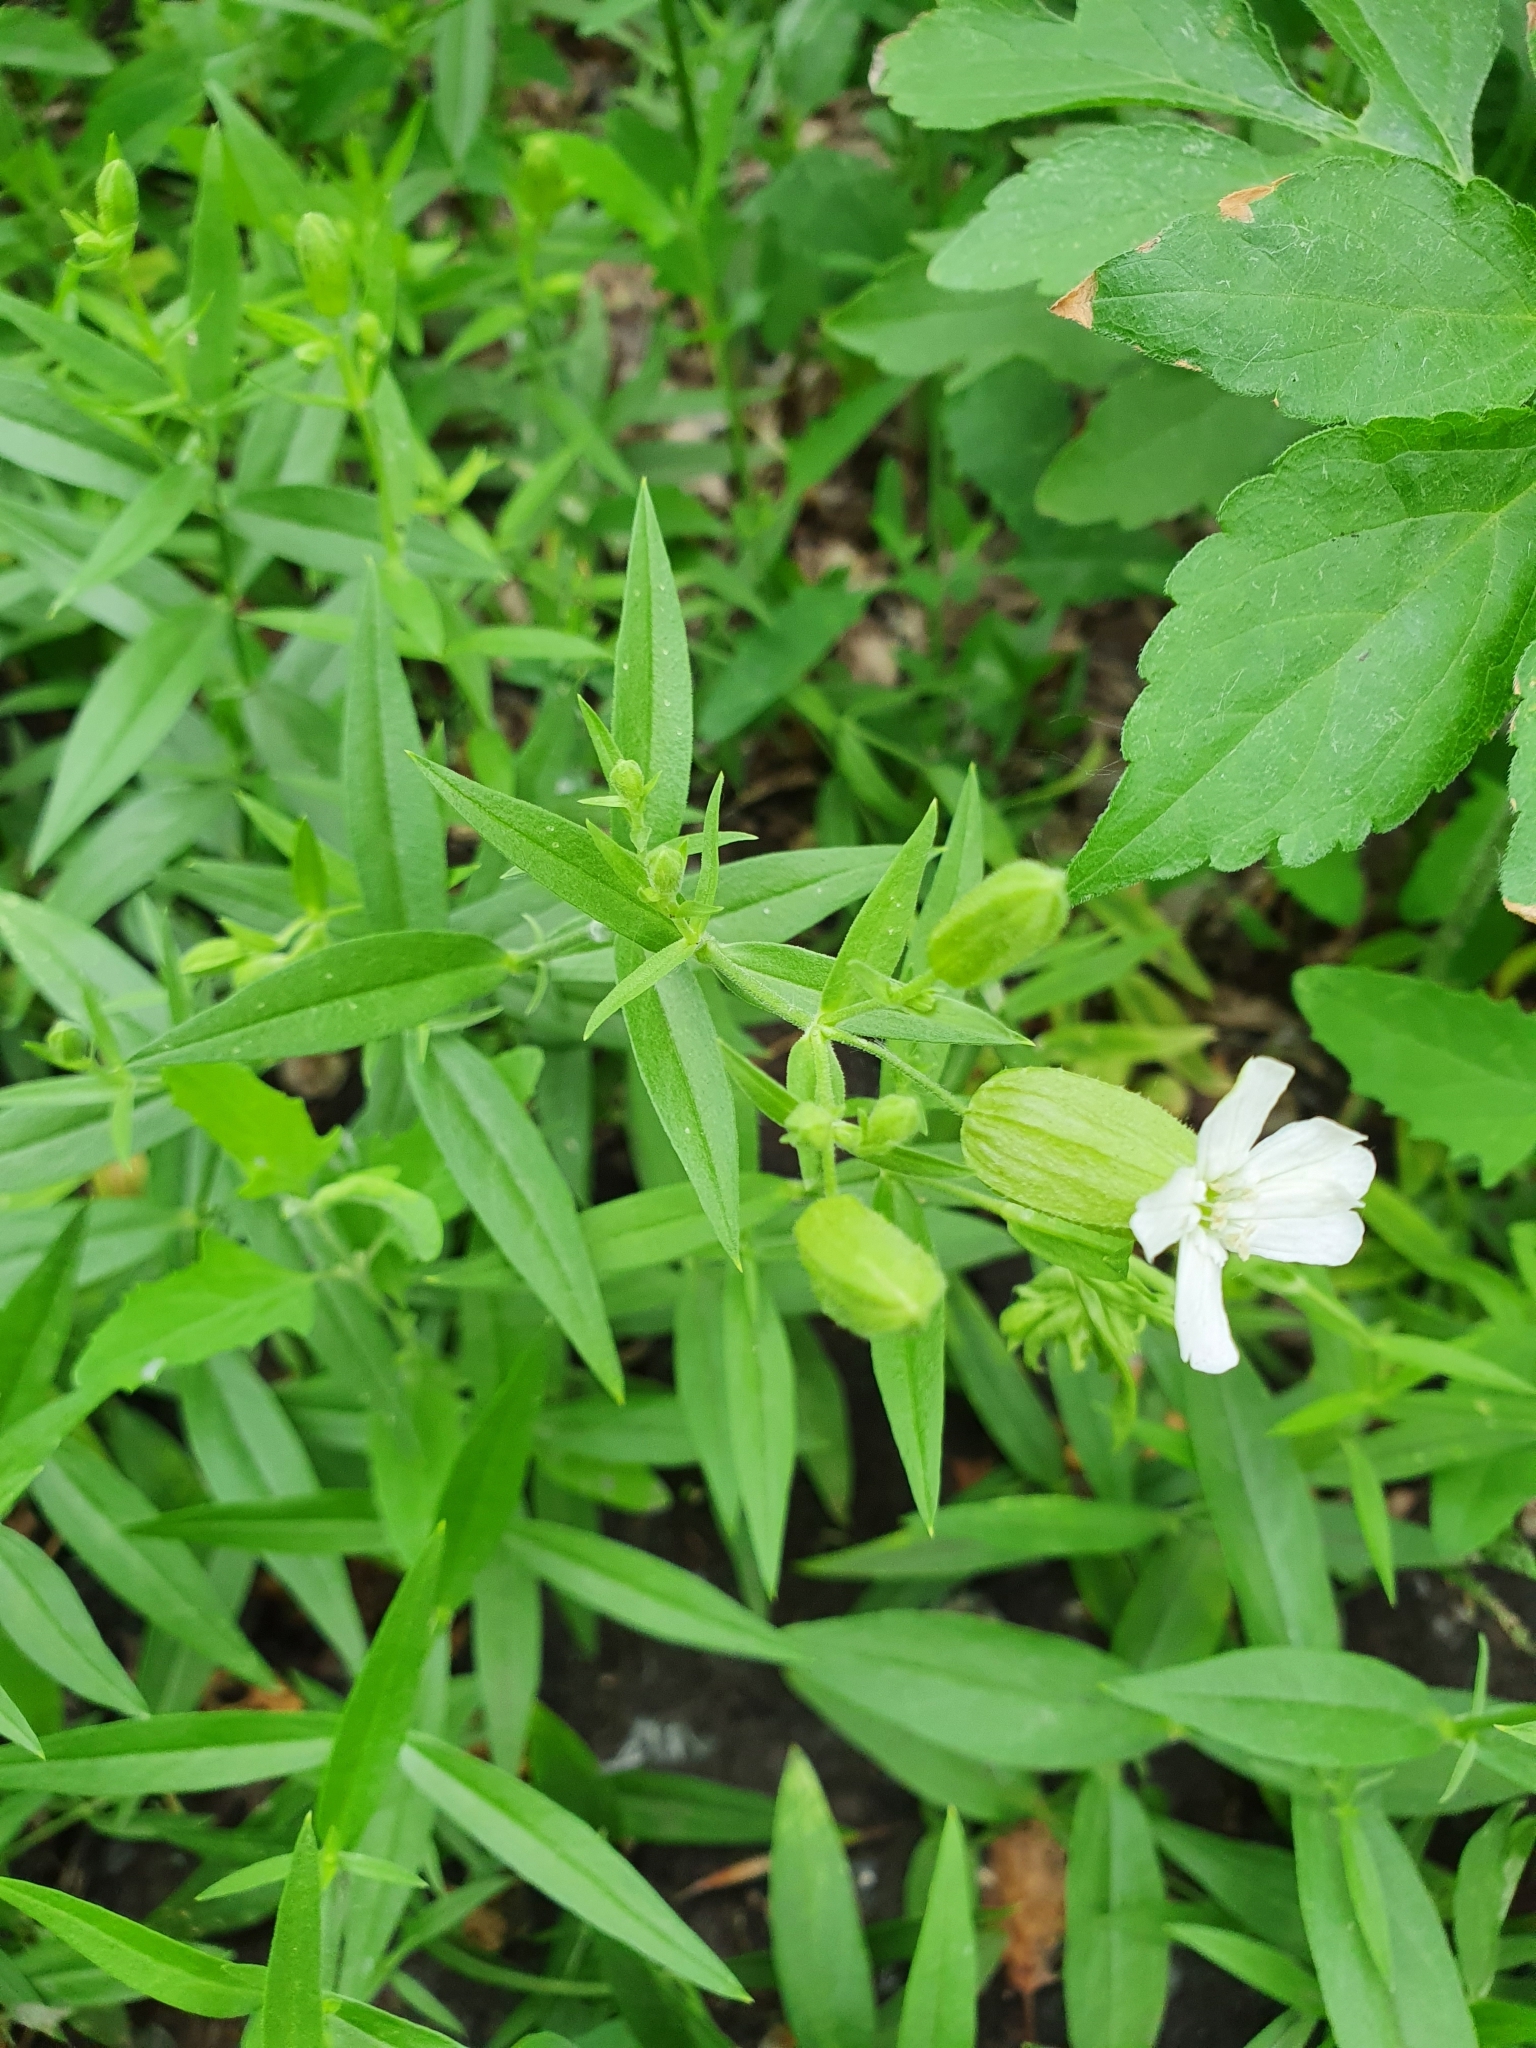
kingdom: Plantae
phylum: Tracheophyta
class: Magnoliopsida
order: Caryophyllales
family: Caryophyllaceae
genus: Silene
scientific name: Silene procumbens
